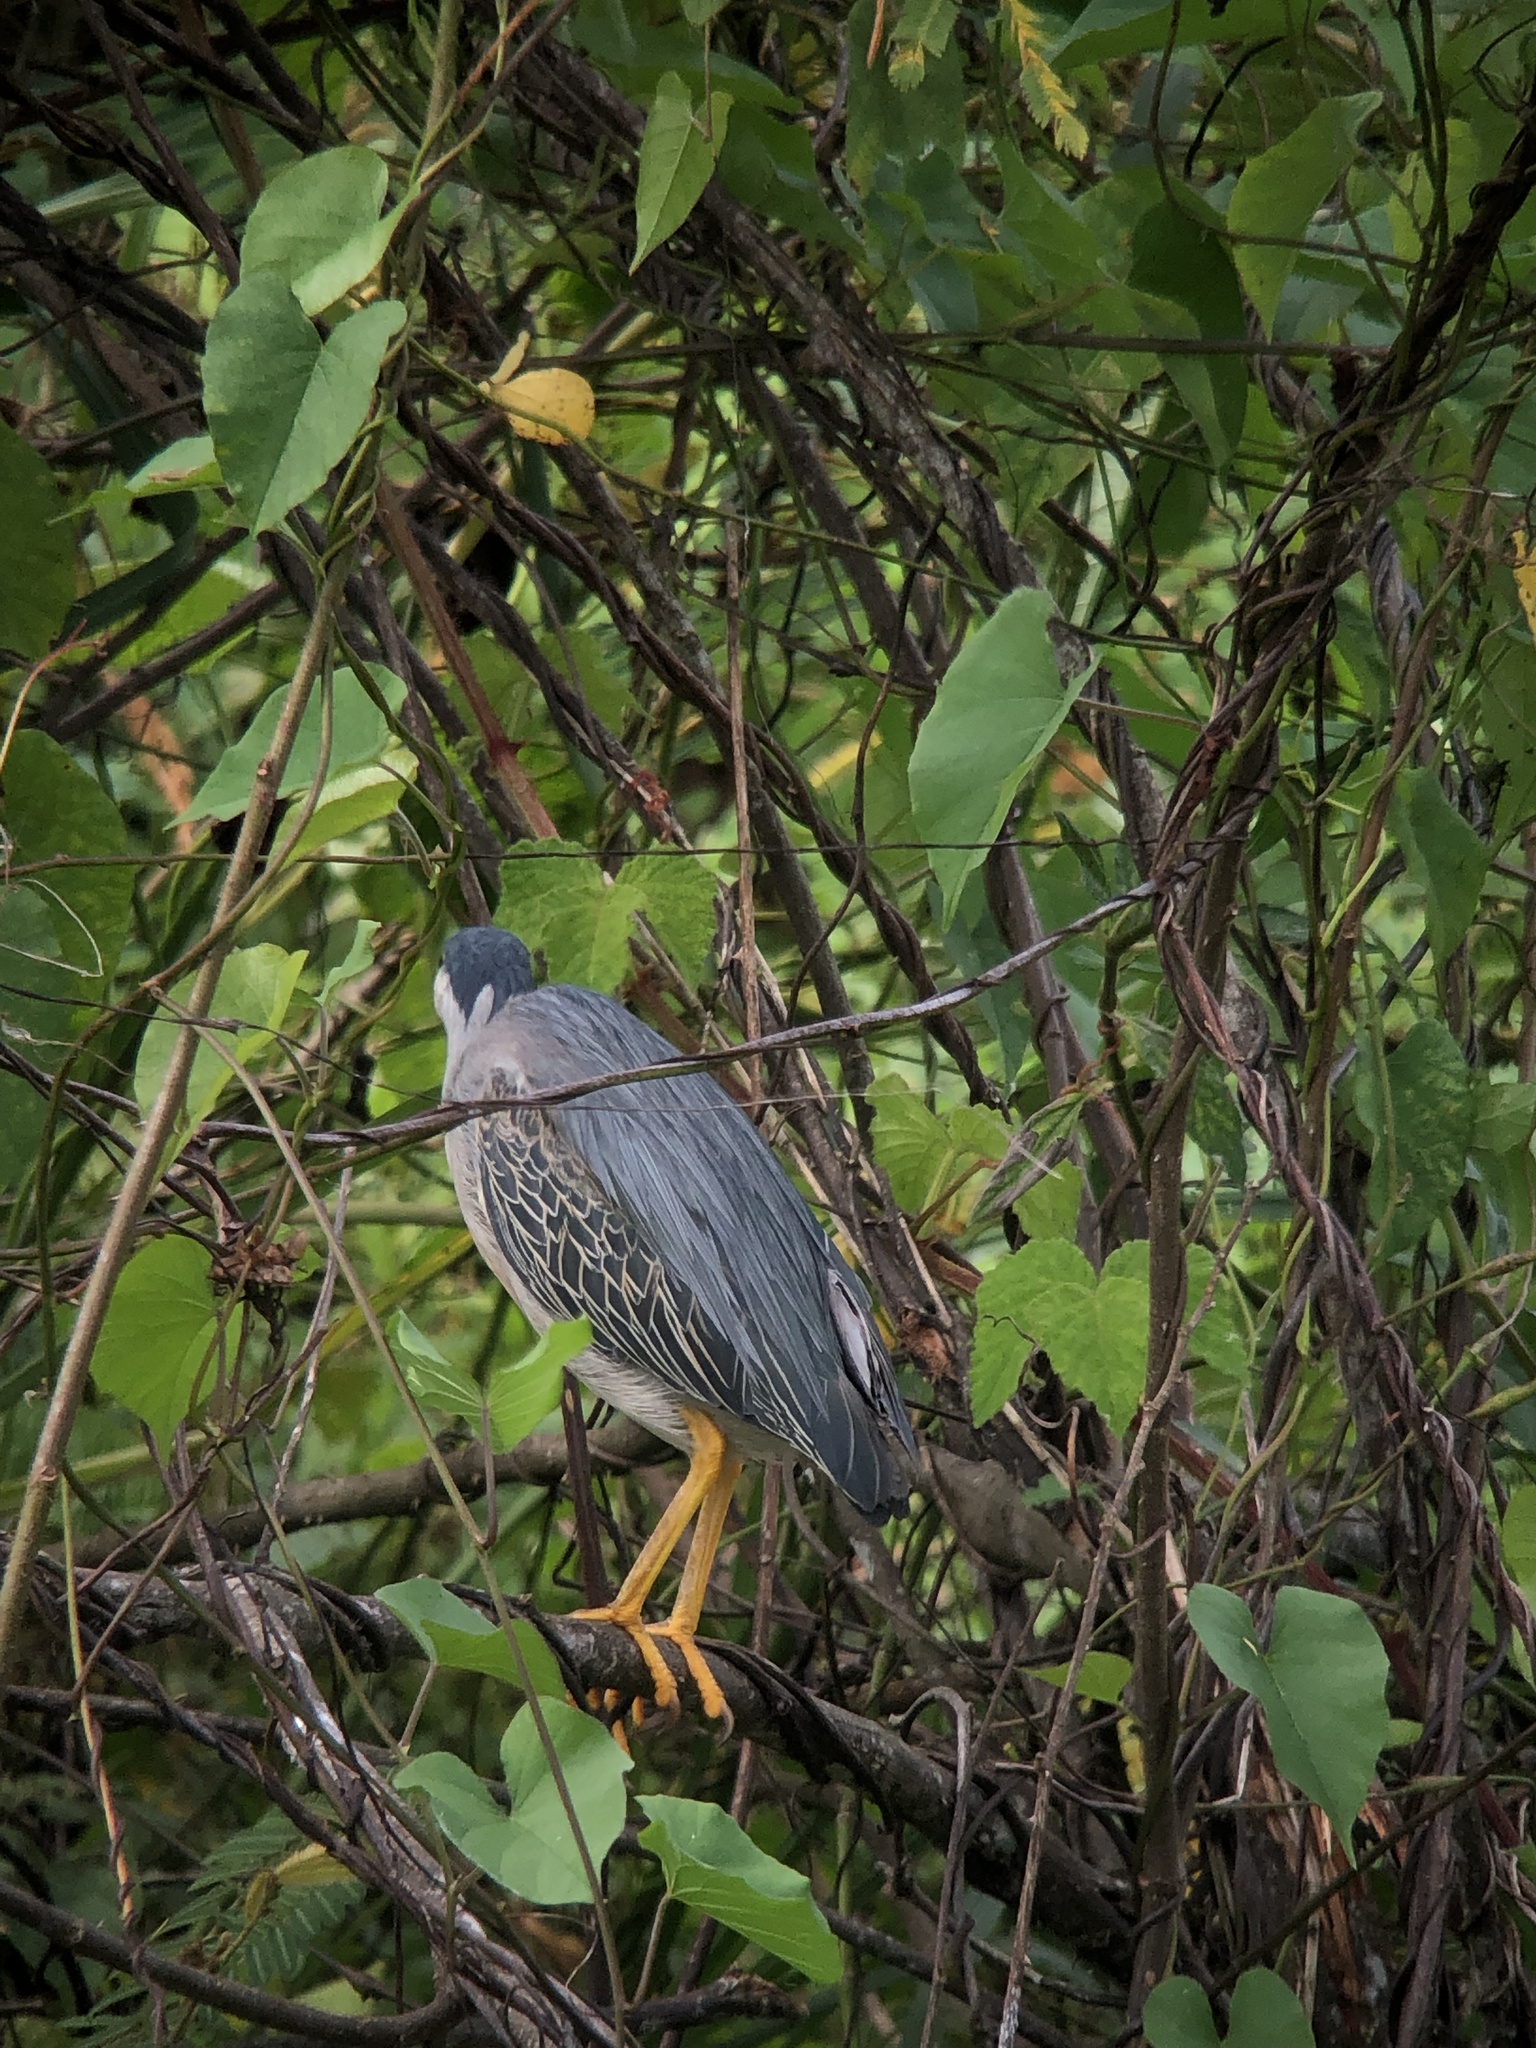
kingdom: Animalia
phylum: Chordata
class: Aves
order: Pelecaniformes
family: Ardeidae
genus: Butorides
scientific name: Butorides striata
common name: Striated heron
